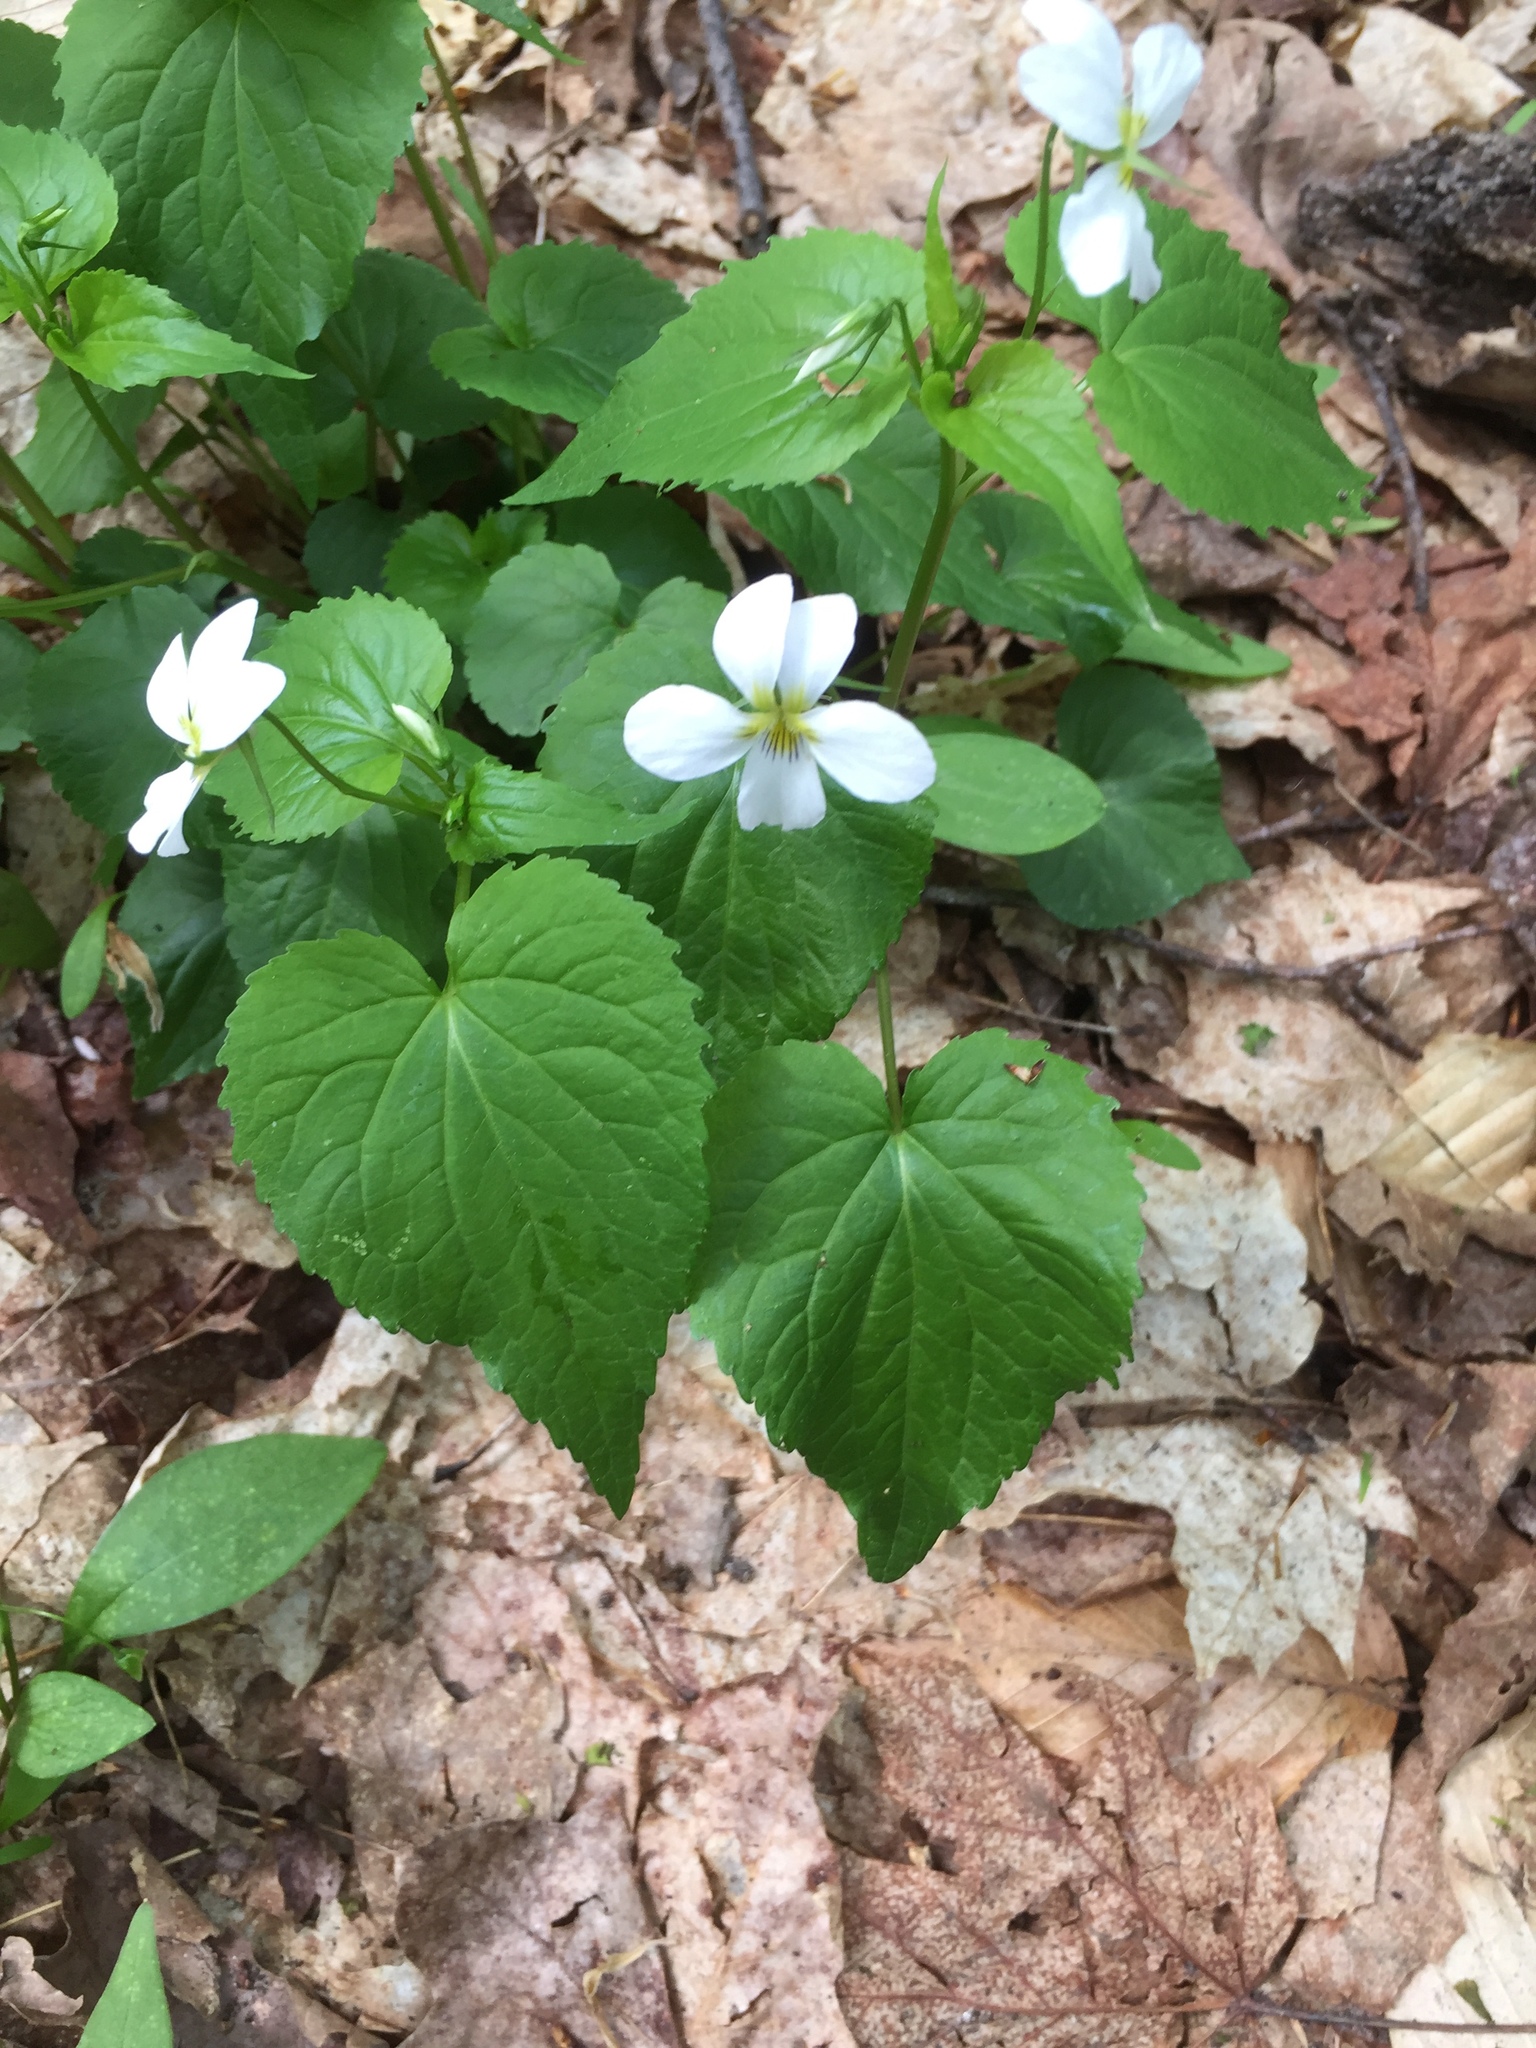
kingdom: Plantae
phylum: Tracheophyta
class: Magnoliopsida
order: Malpighiales
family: Violaceae
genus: Viola
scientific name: Viola canadensis
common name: Canada violet
